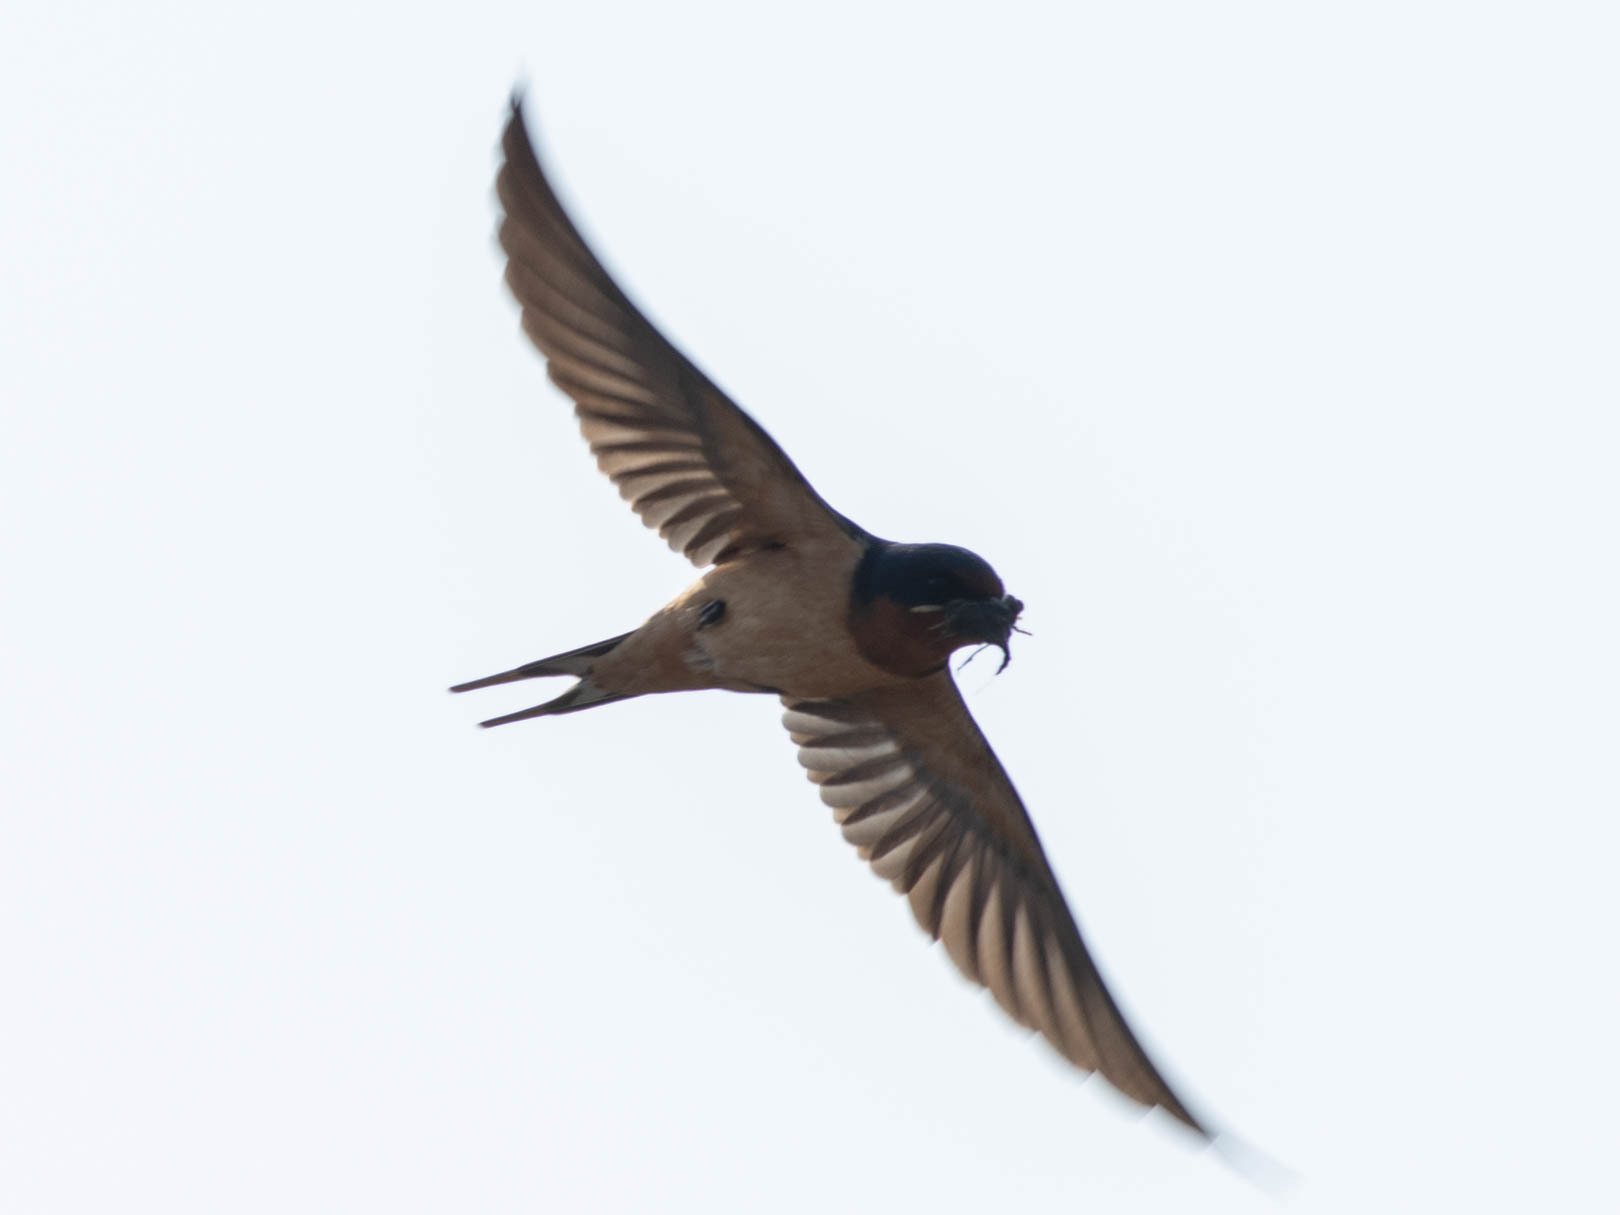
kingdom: Animalia
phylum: Chordata
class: Aves
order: Passeriformes
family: Hirundinidae
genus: Hirundo
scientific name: Hirundo rustica
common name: Barn swallow
